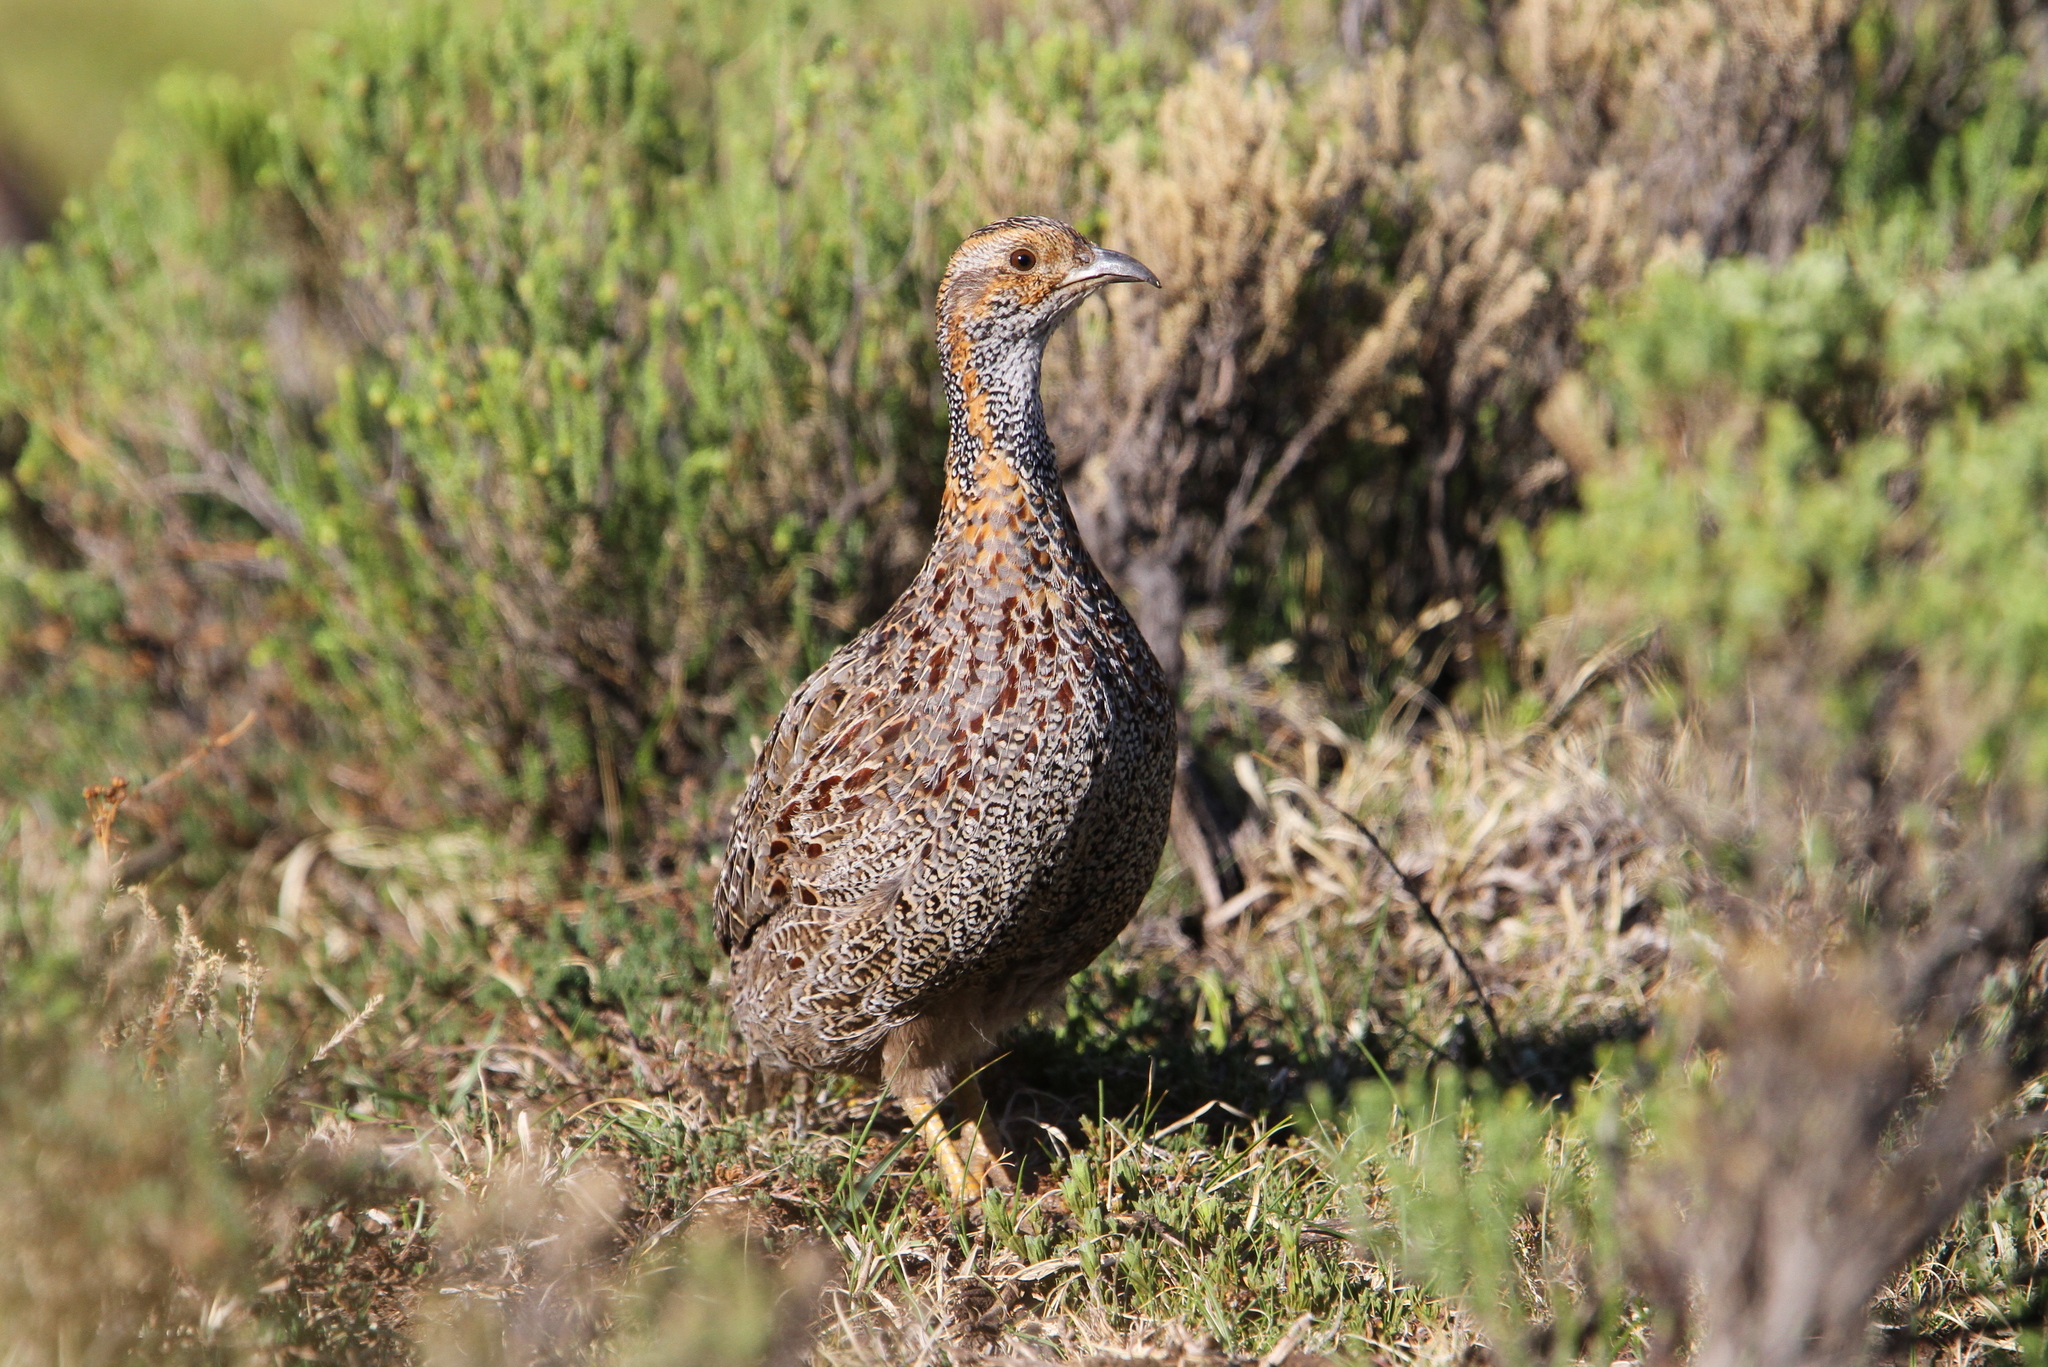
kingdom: Animalia
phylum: Chordata
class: Aves
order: Galliformes
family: Phasianidae
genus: Scleroptila
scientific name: Scleroptila afra
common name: Grey-winged francolin
